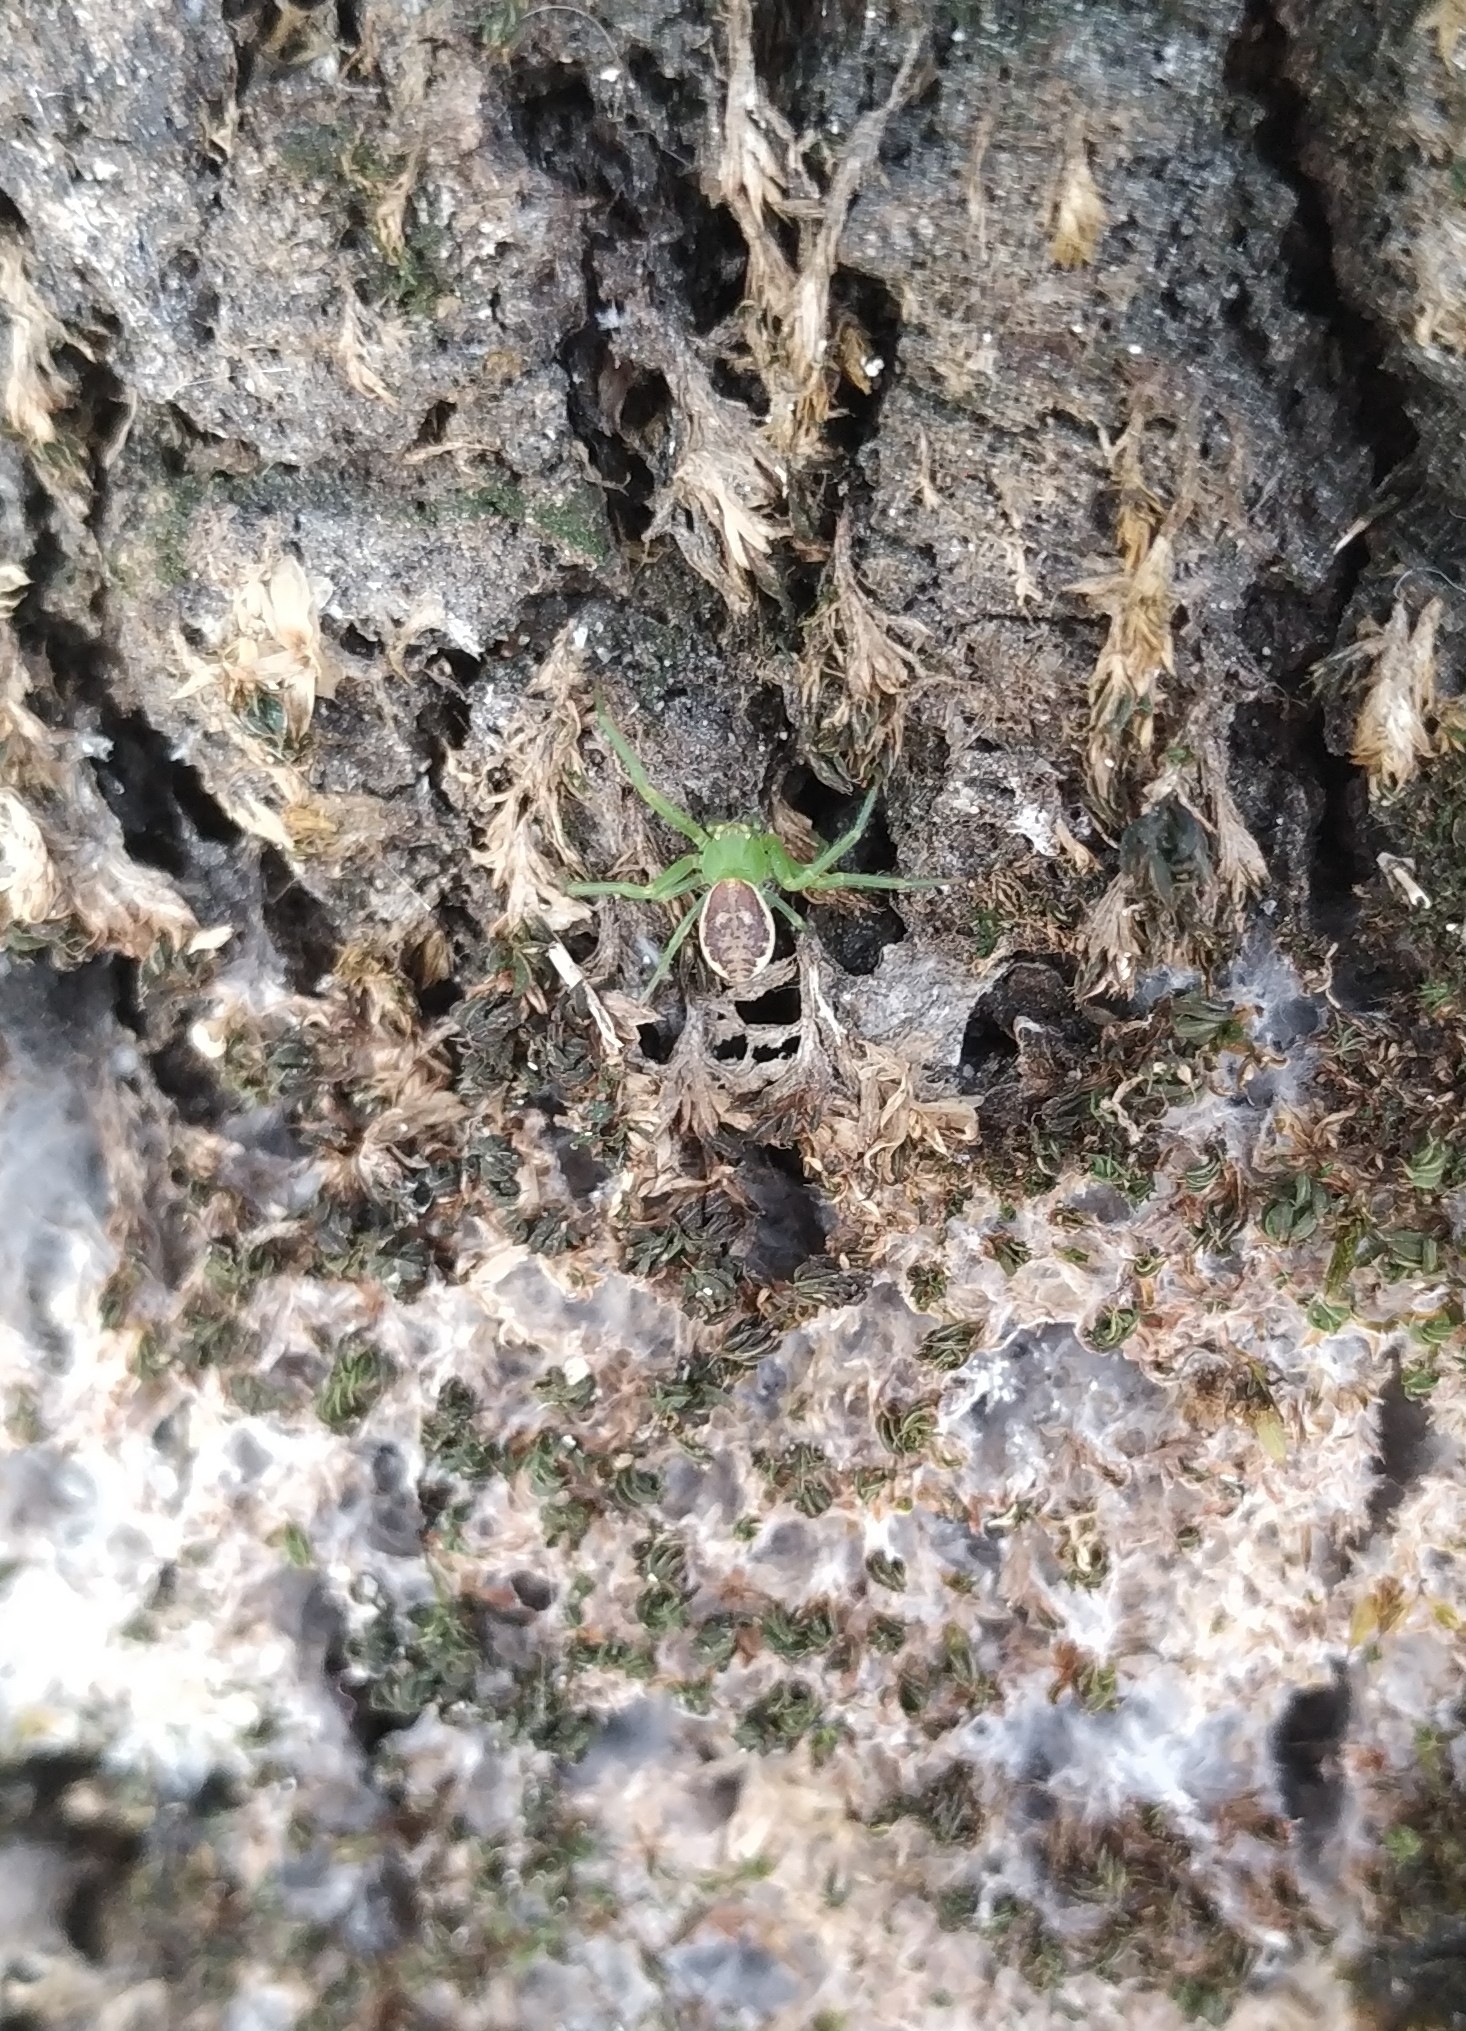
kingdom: Animalia
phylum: Arthropoda
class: Arachnida
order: Araneae
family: Thomisidae
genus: Diaea
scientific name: Diaea dorsata
